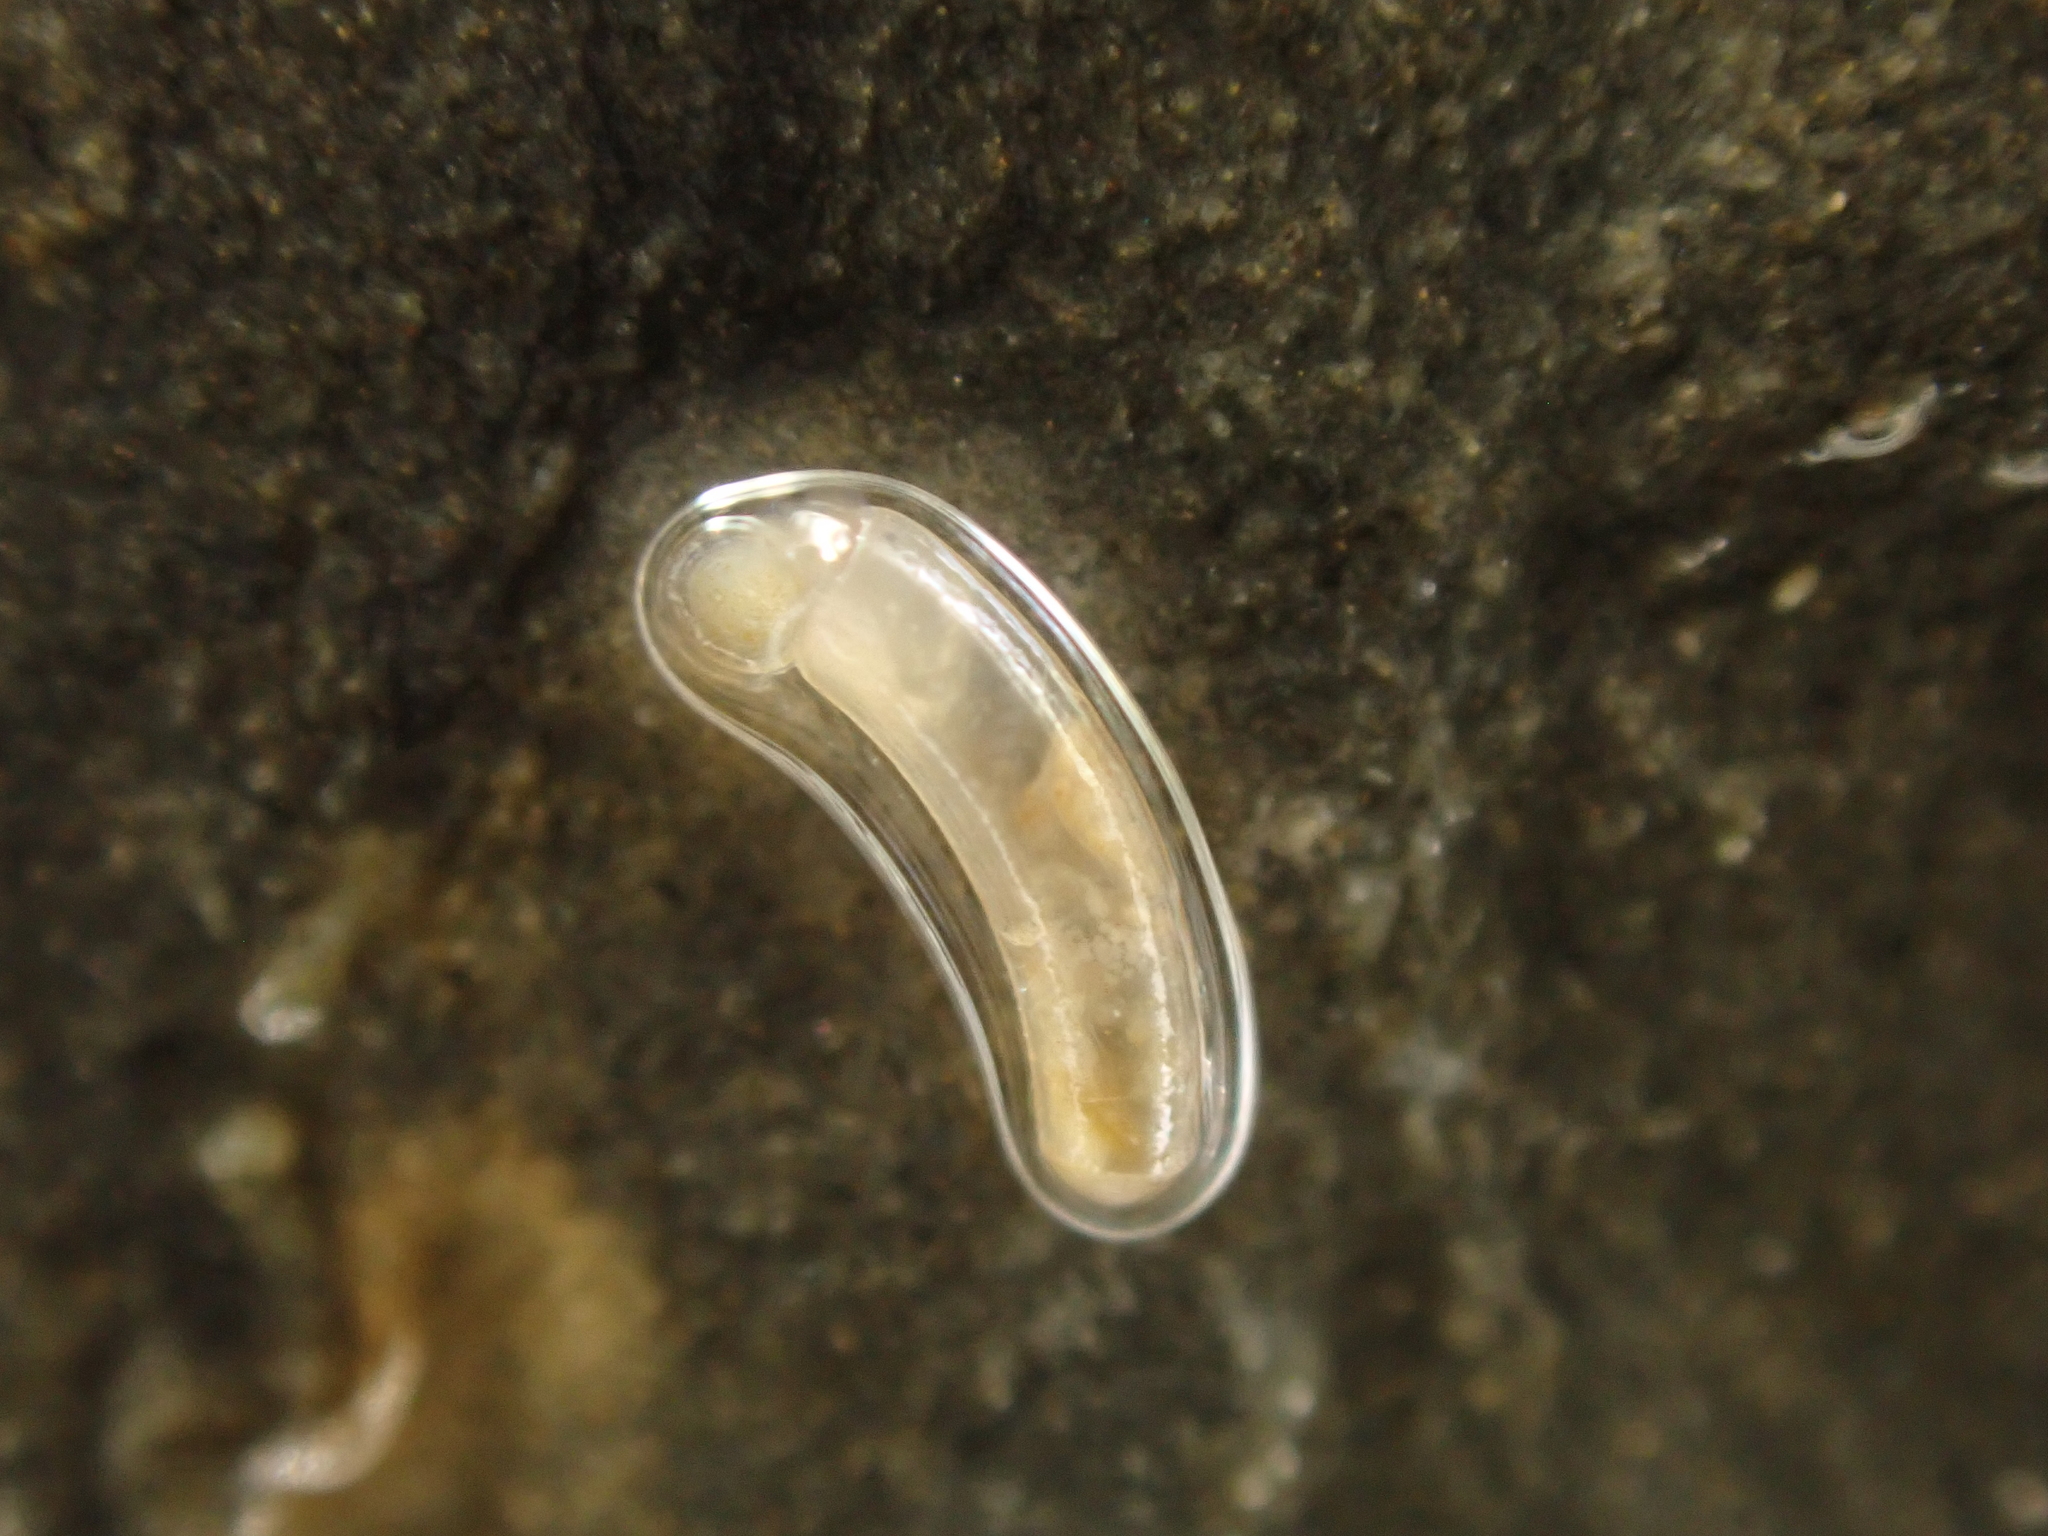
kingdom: Animalia
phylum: Mollusca
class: Gastropoda
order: Littorinimorpha
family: Caecidae
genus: Caecum
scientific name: Caecum
